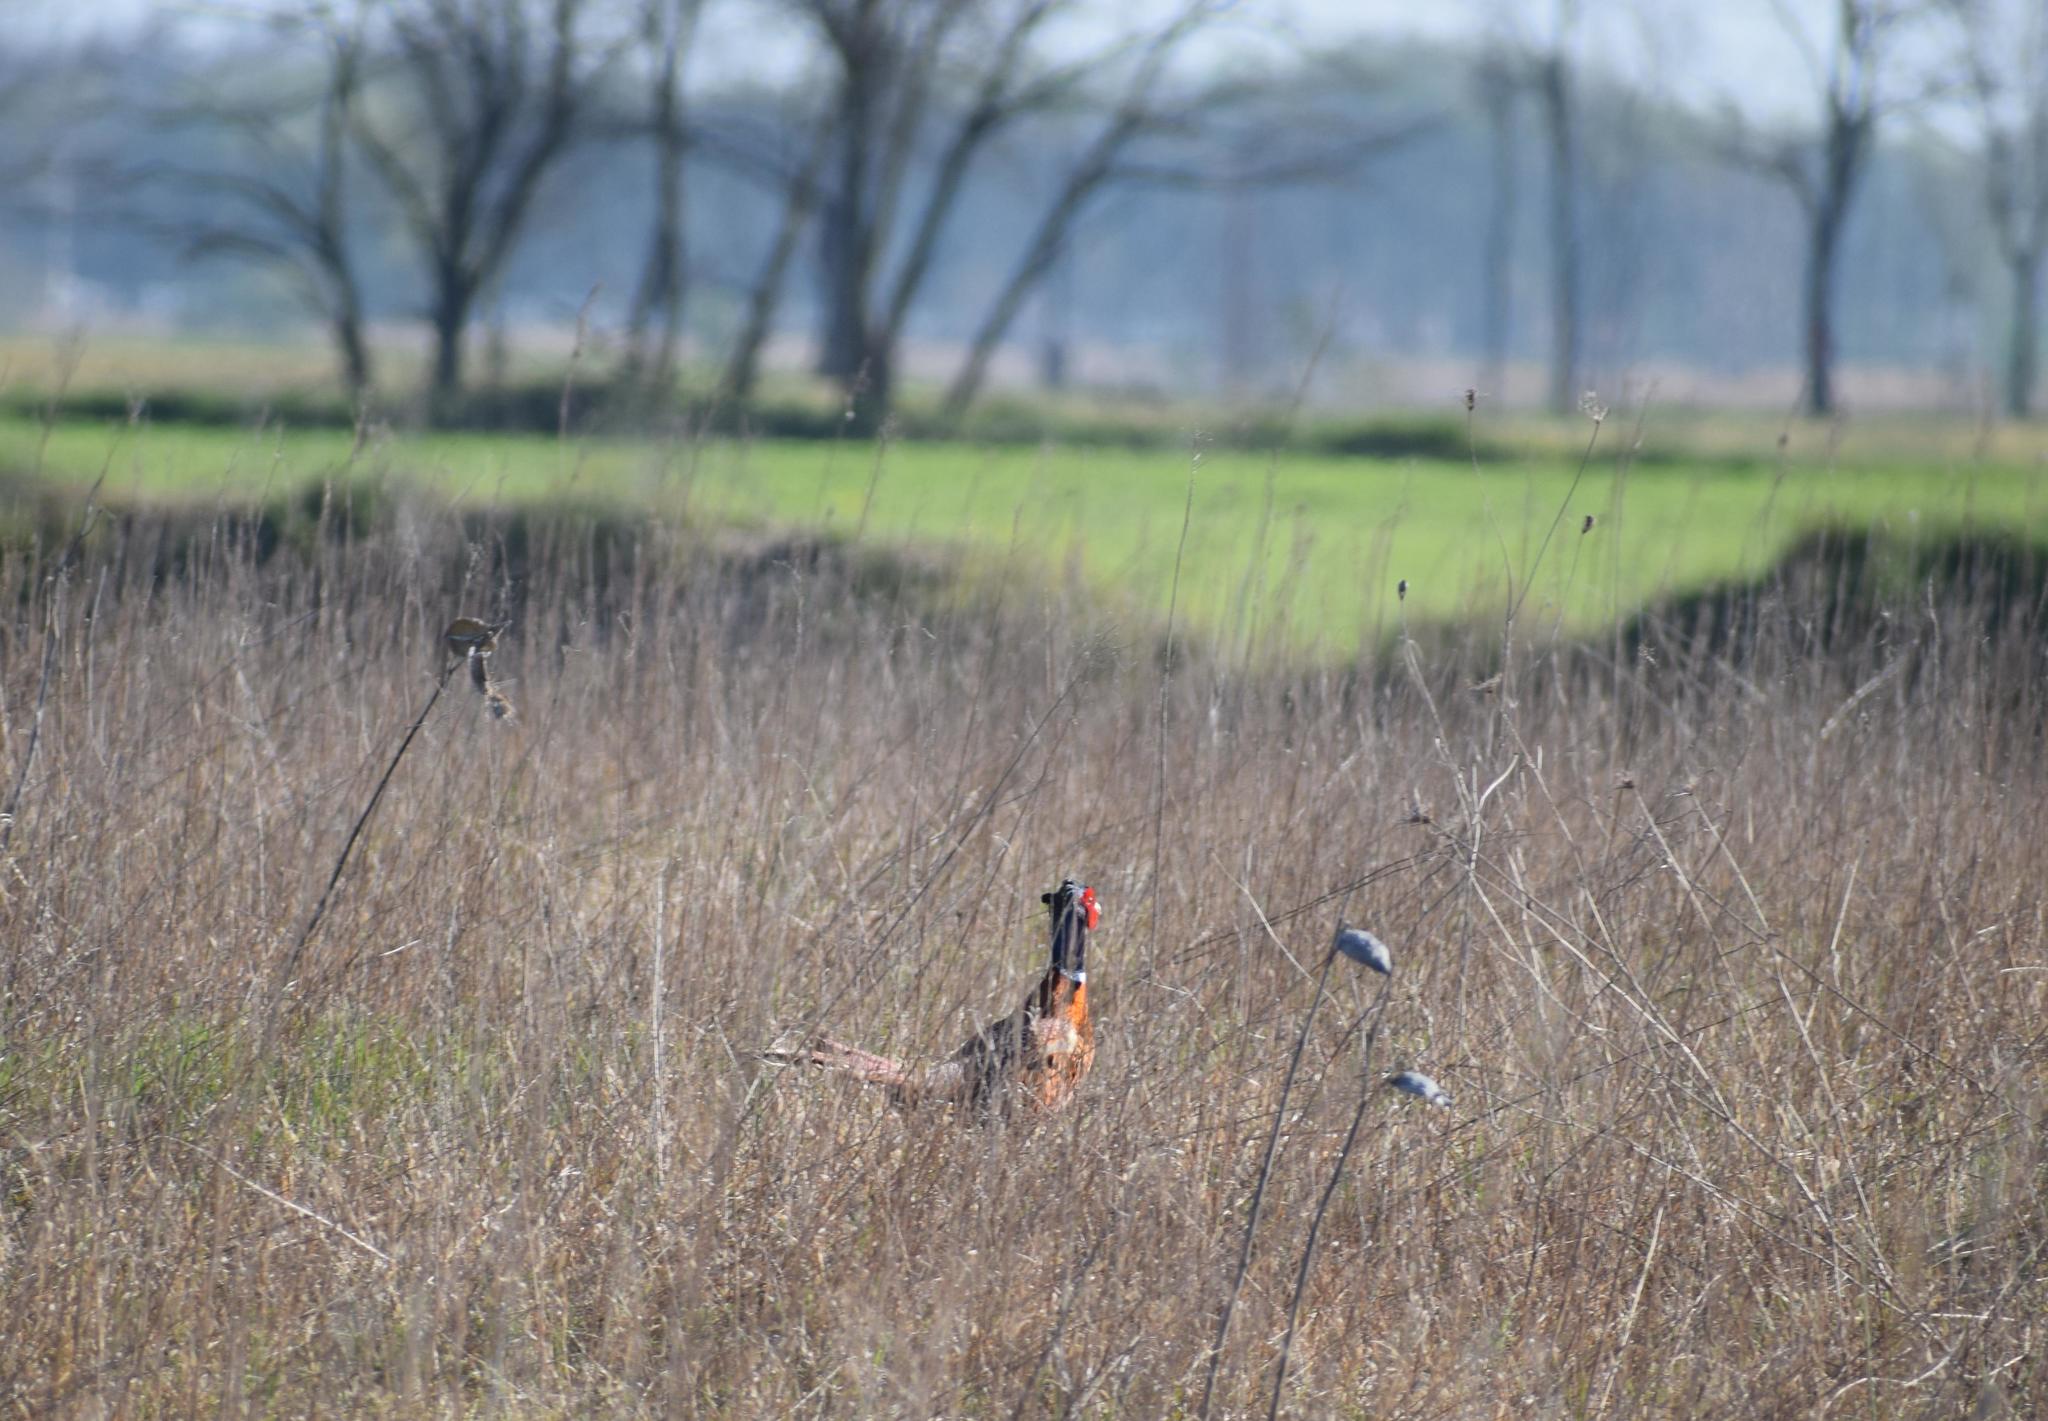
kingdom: Animalia
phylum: Chordata
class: Aves
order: Galliformes
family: Phasianidae
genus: Phasianus
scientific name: Phasianus colchicus
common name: Common pheasant
